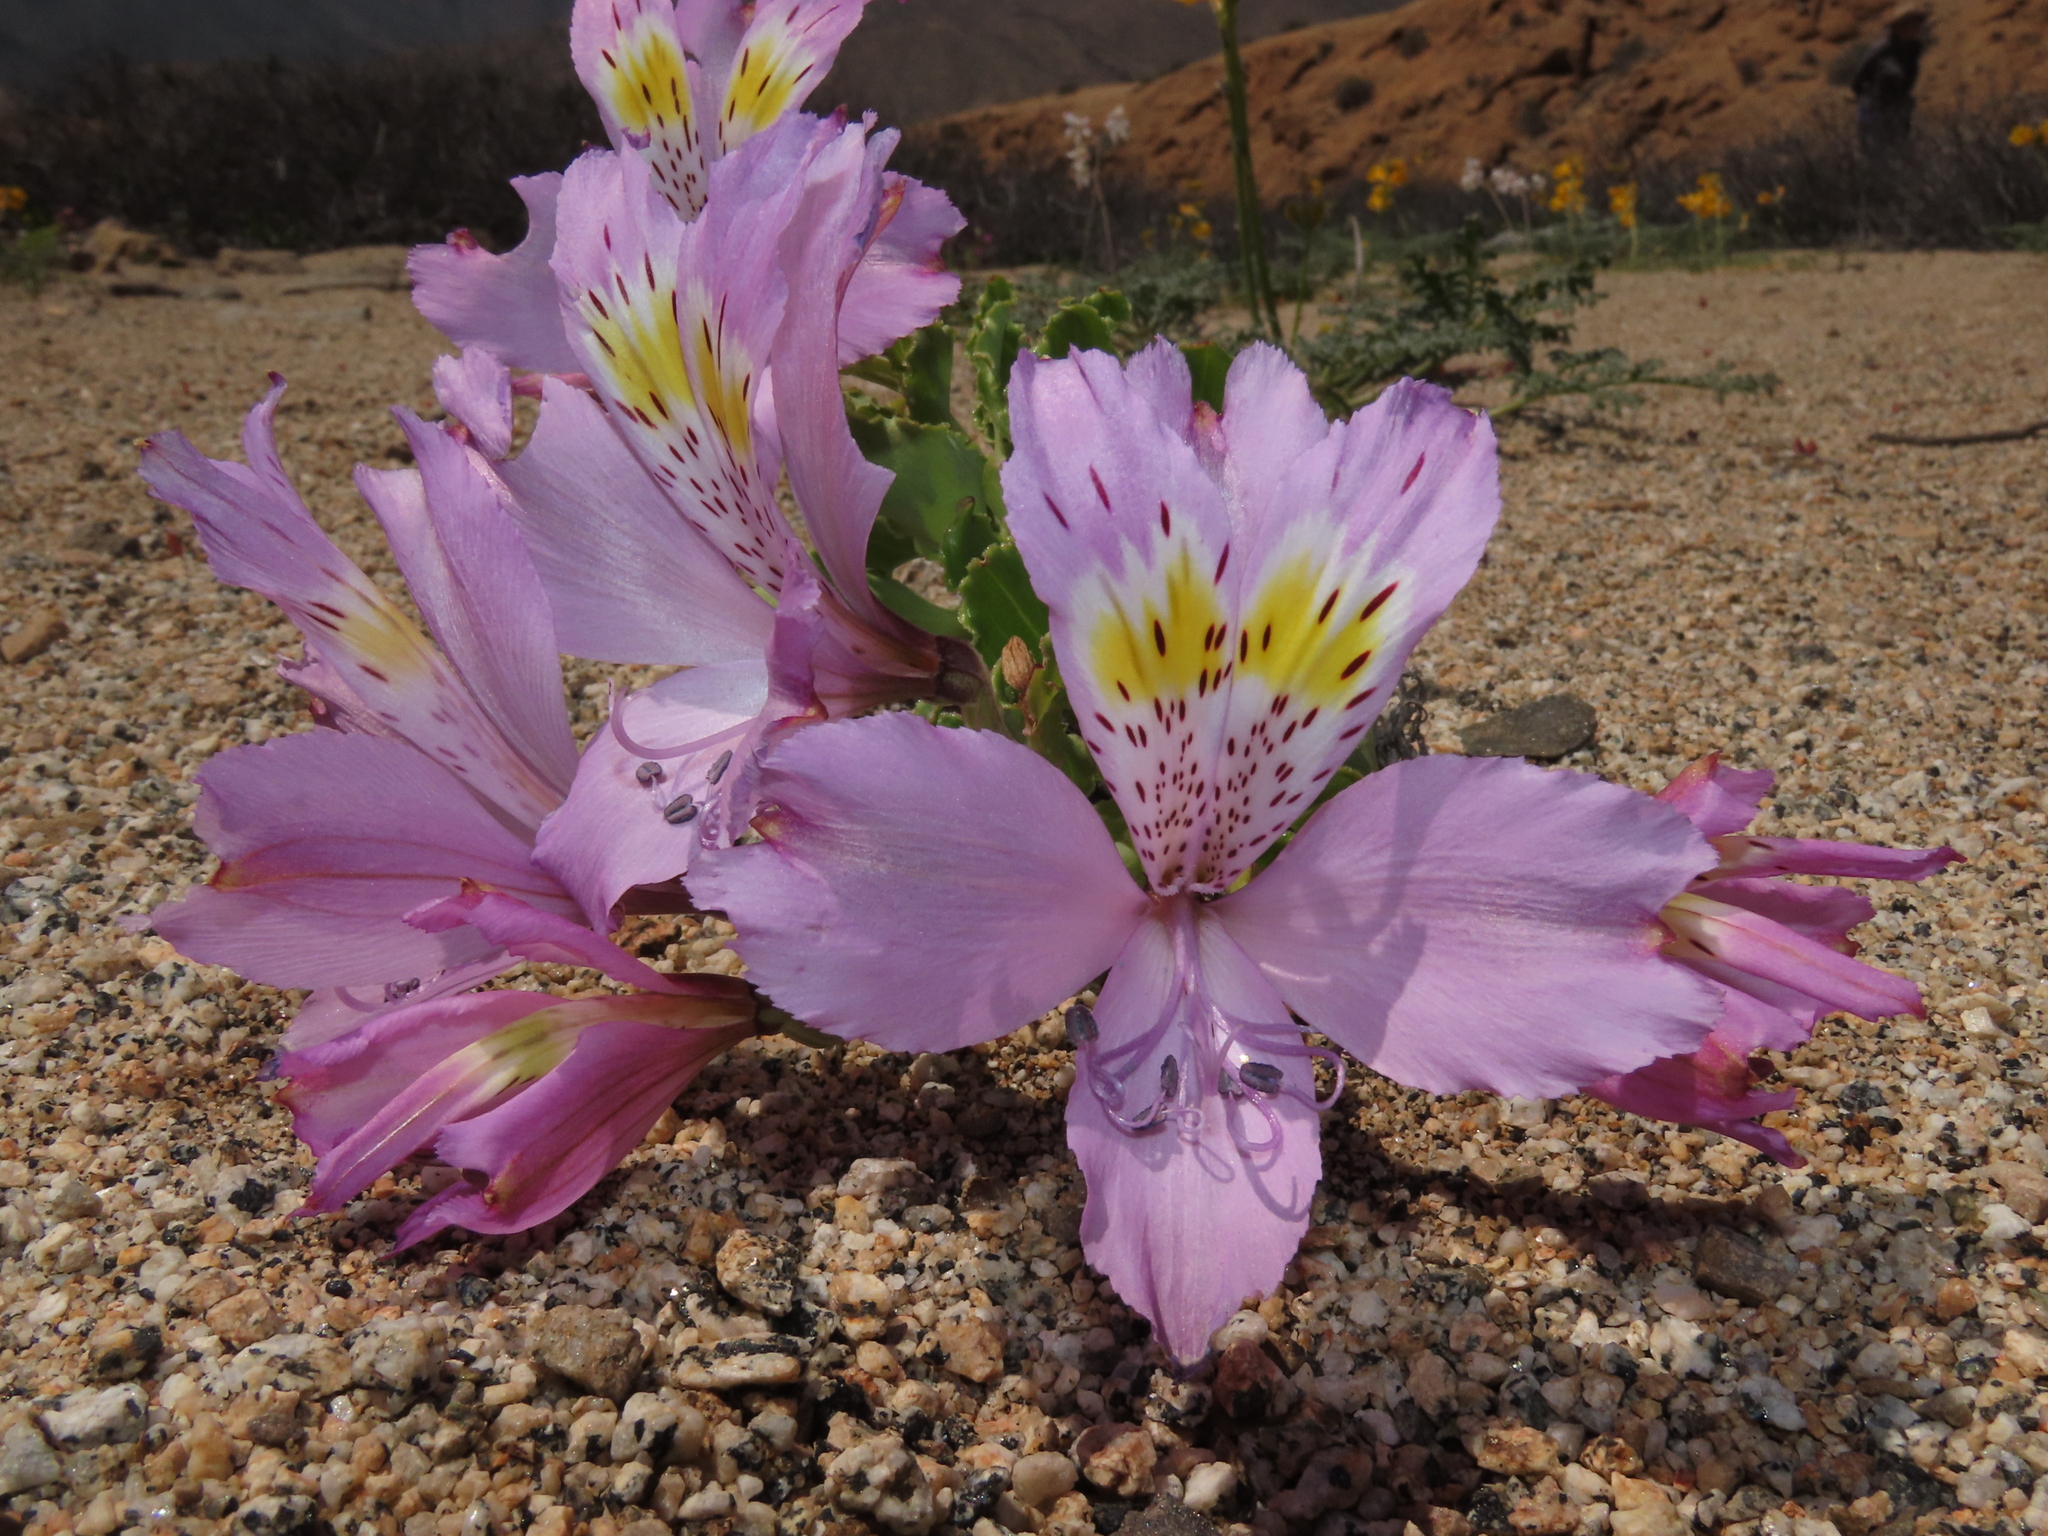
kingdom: Plantae
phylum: Tracheophyta
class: Liliopsida
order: Liliales
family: Alstroemeriaceae
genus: Alstroemeria
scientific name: Alstroemeria violacea
